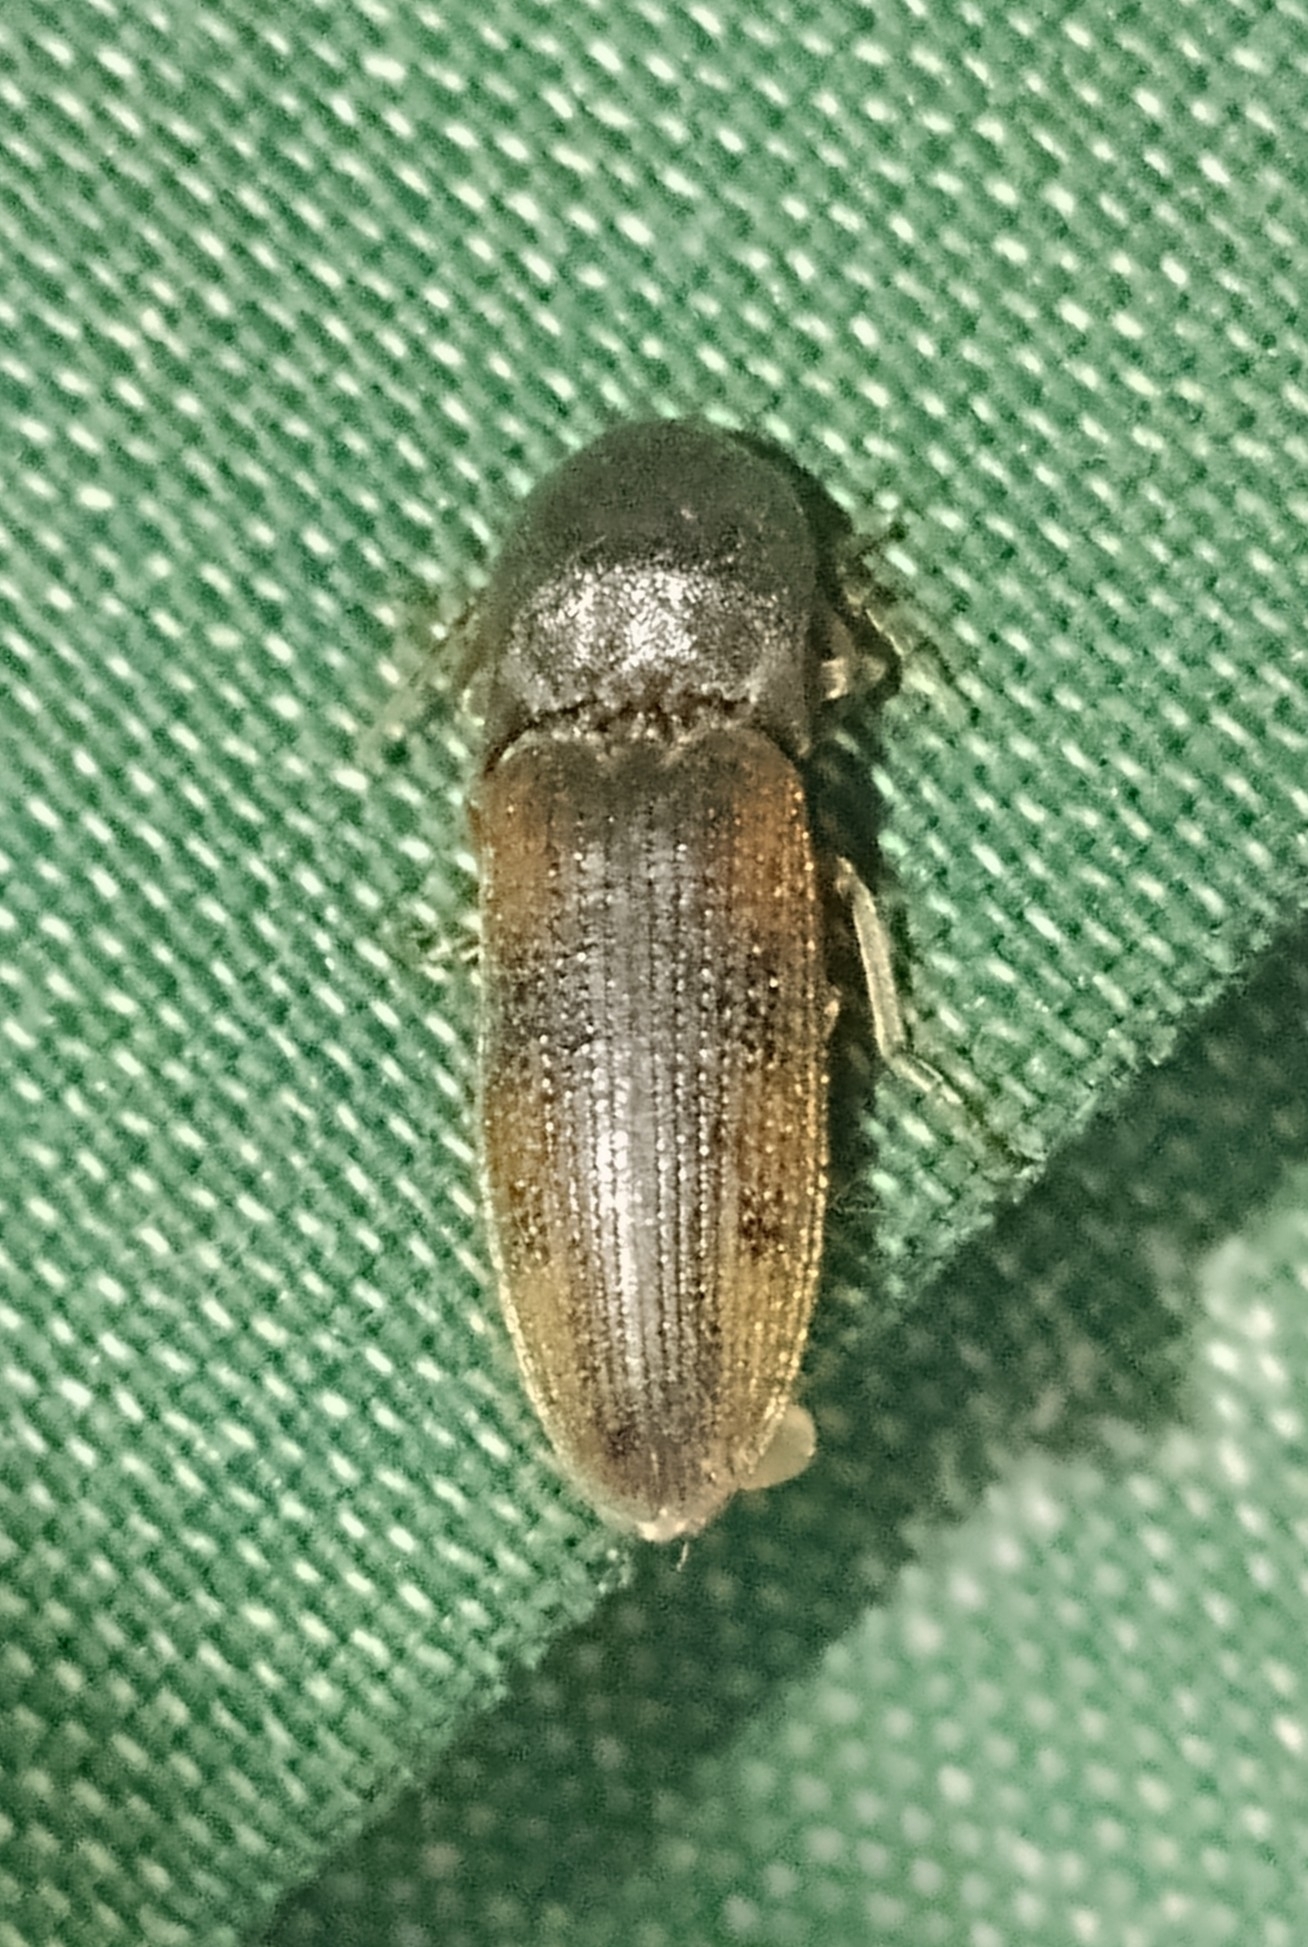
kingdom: Animalia
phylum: Arthropoda
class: Insecta
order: Coleoptera
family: Elateridae
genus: Monocrepidius
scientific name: Monocrepidius
